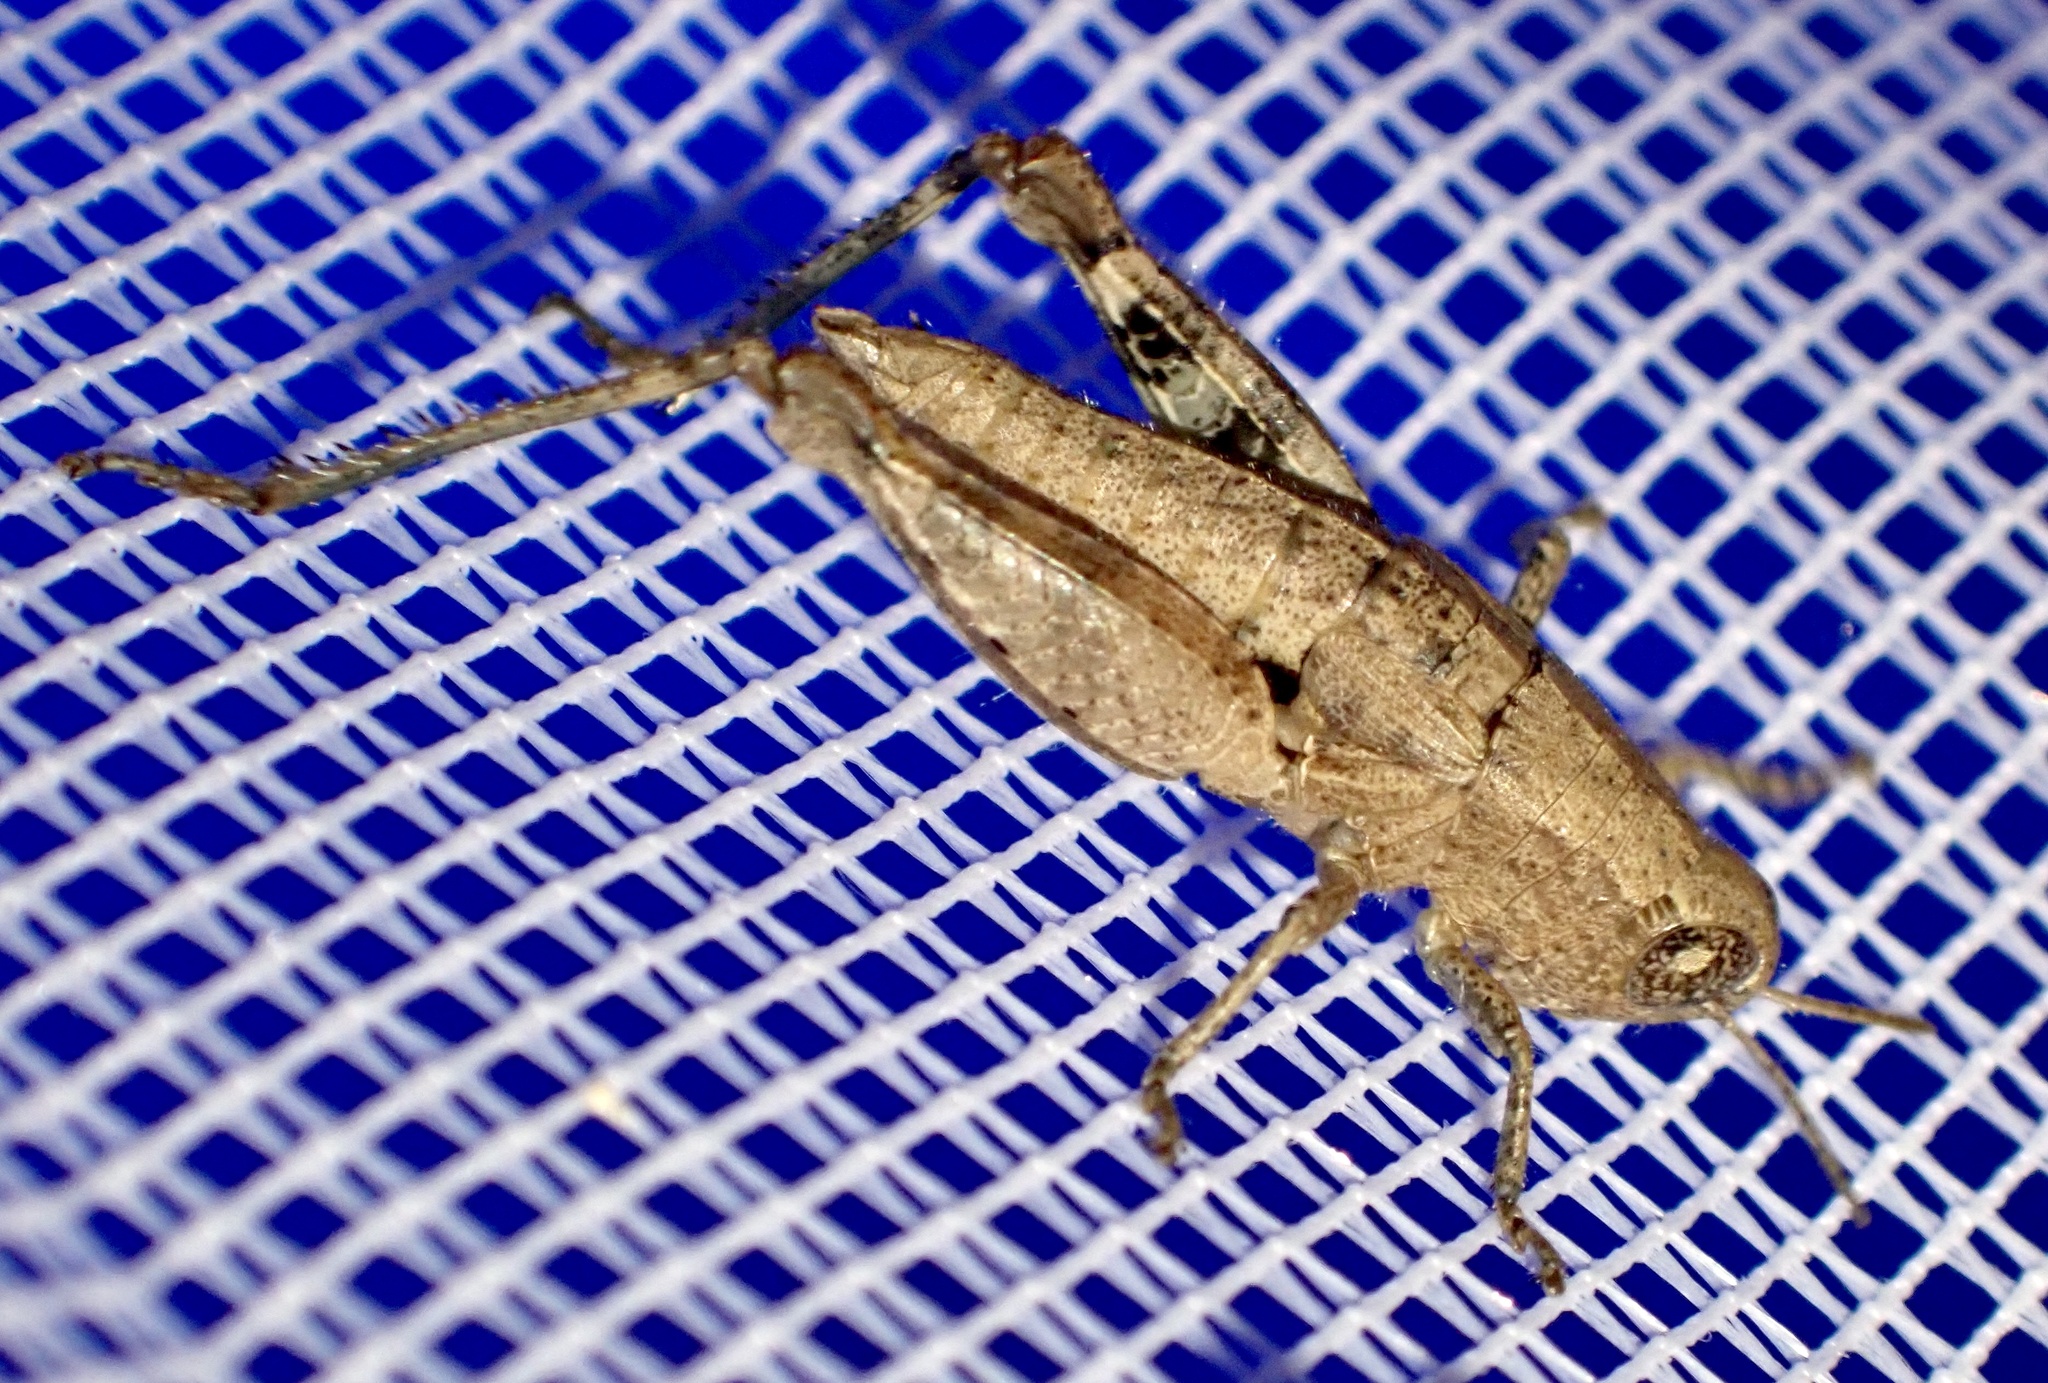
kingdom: Animalia
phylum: Arthropoda
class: Insecta
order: Orthoptera
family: Acrididae
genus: Pezotettix
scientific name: Pezotettix giornae
